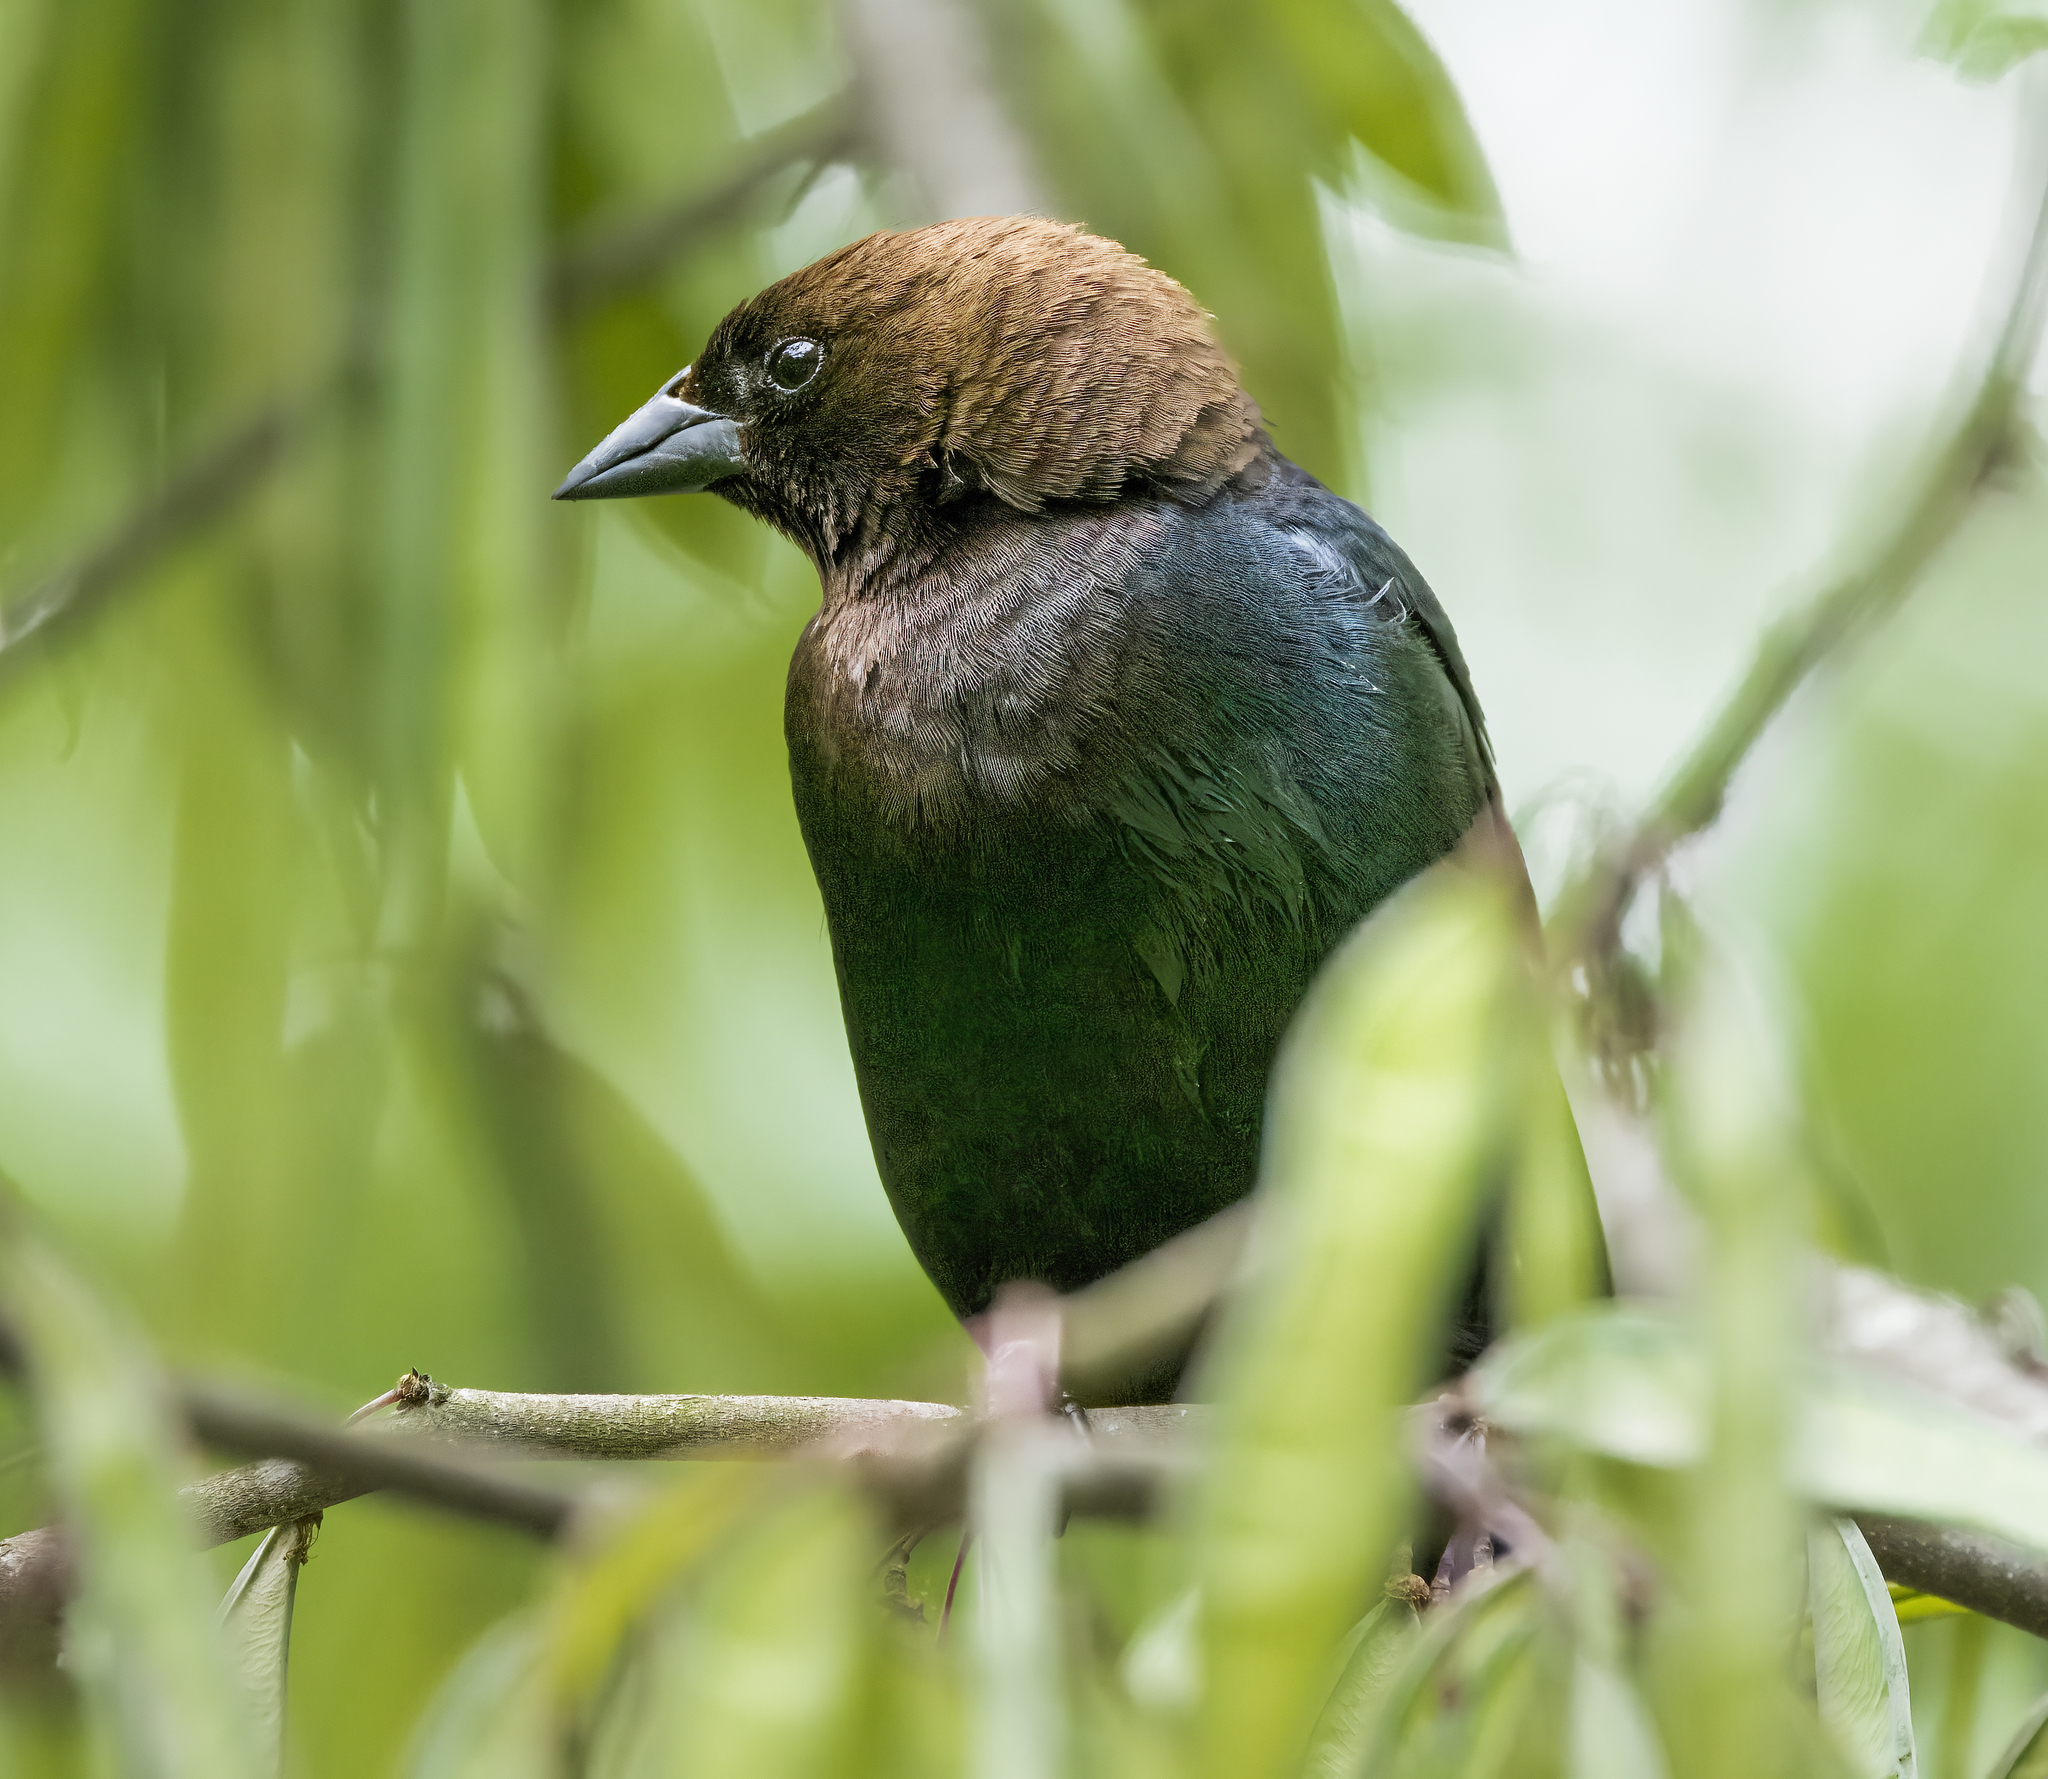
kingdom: Animalia
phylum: Chordata
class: Aves
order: Passeriformes
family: Icteridae
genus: Molothrus
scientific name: Molothrus ater
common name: Brown-headed cowbird
